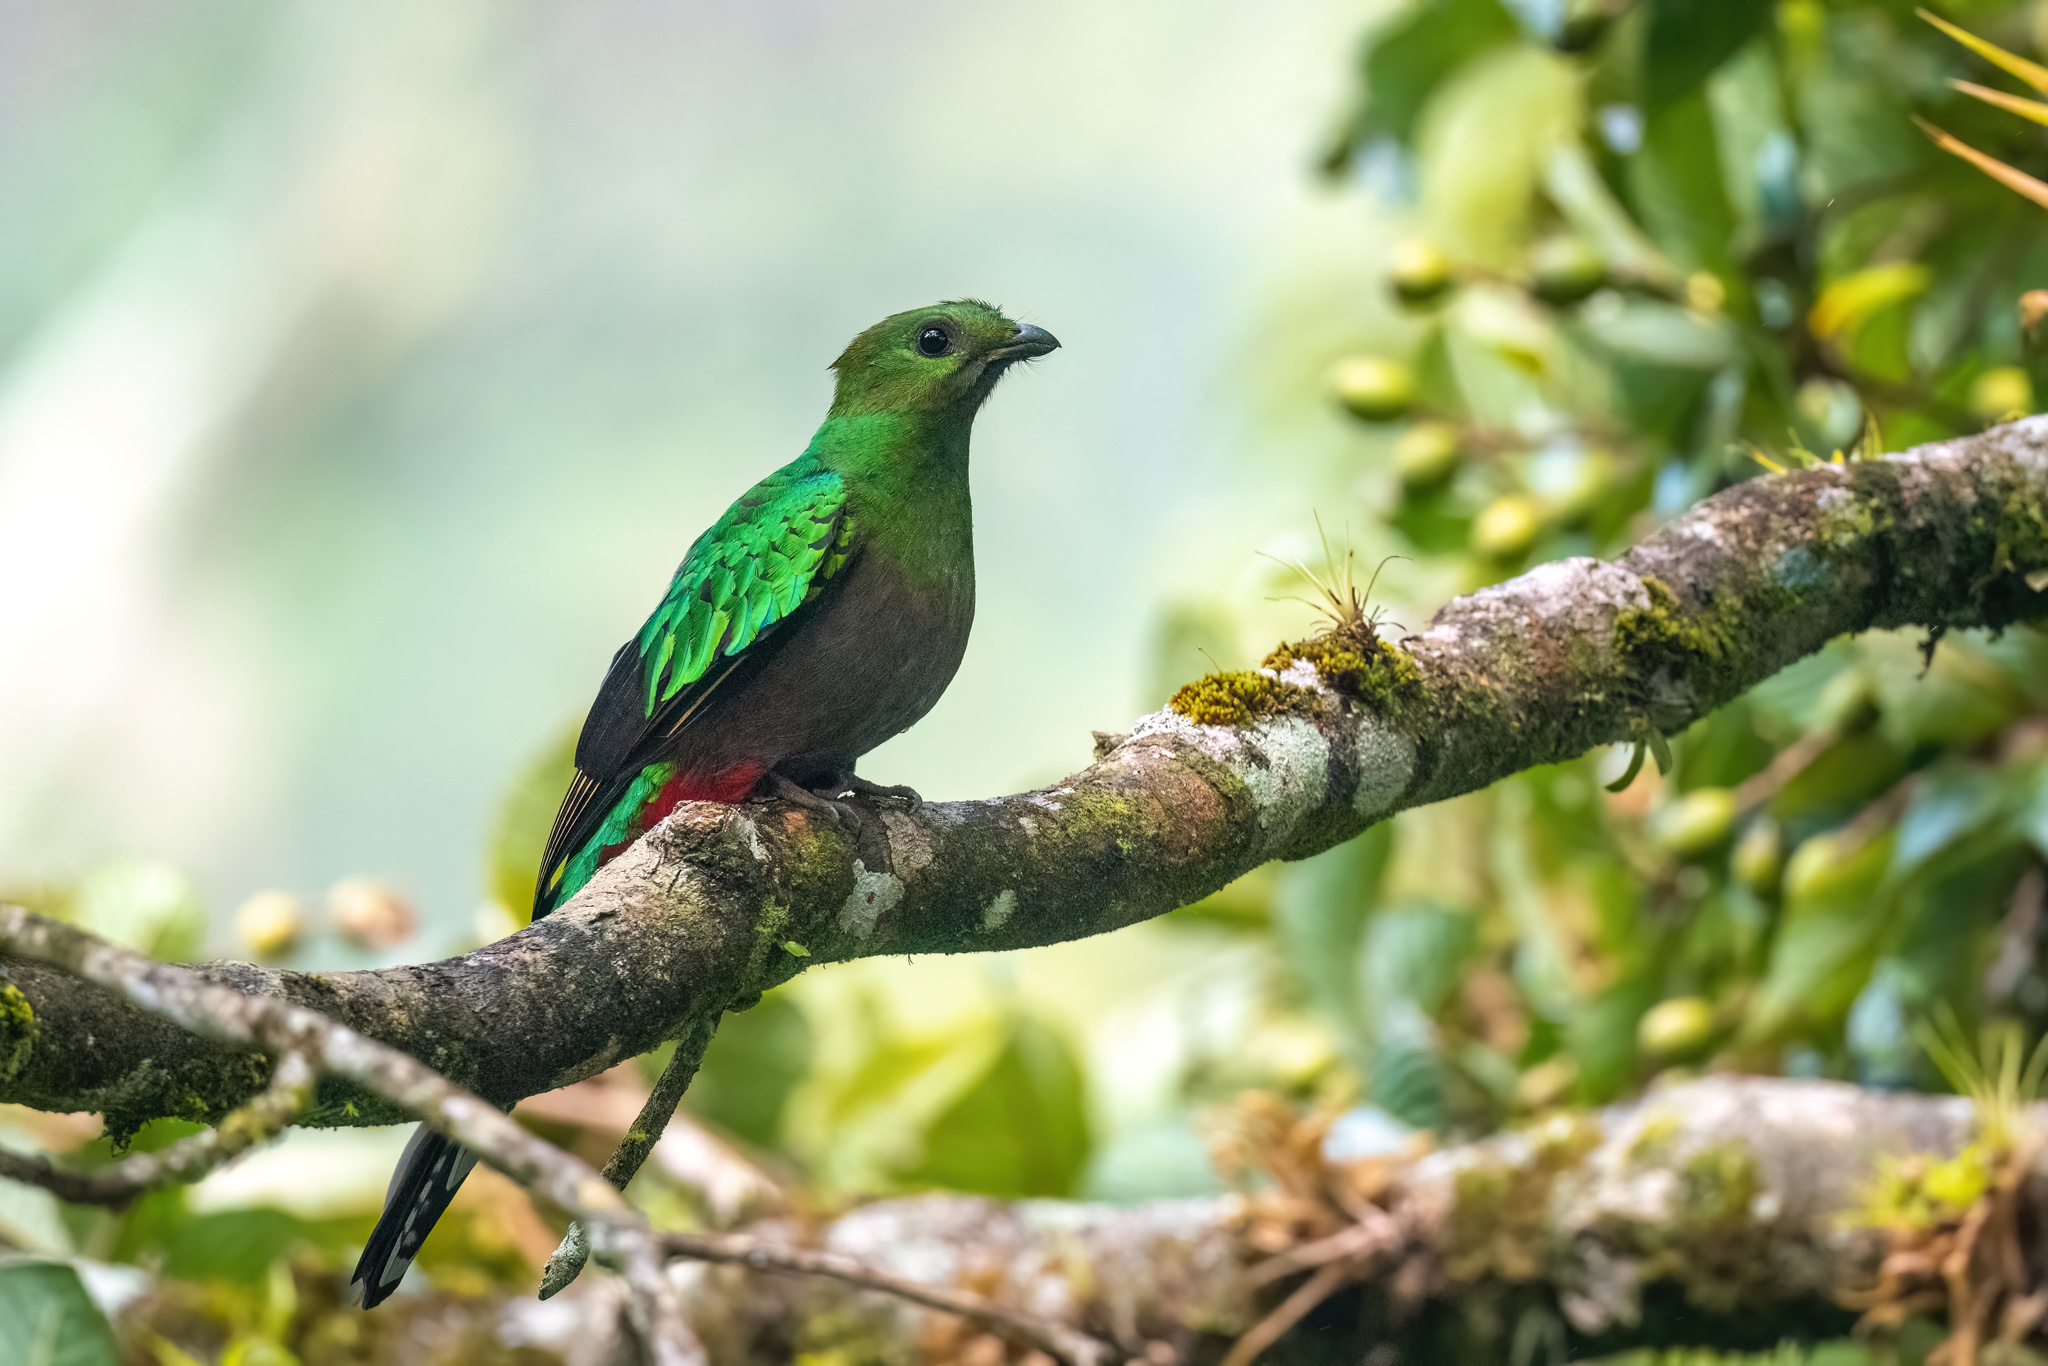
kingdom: Animalia
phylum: Chordata
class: Aves
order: Trogoniformes
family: Trogonidae
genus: Pharomachrus
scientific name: Pharomachrus mocinno
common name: Resplendent quetzal
